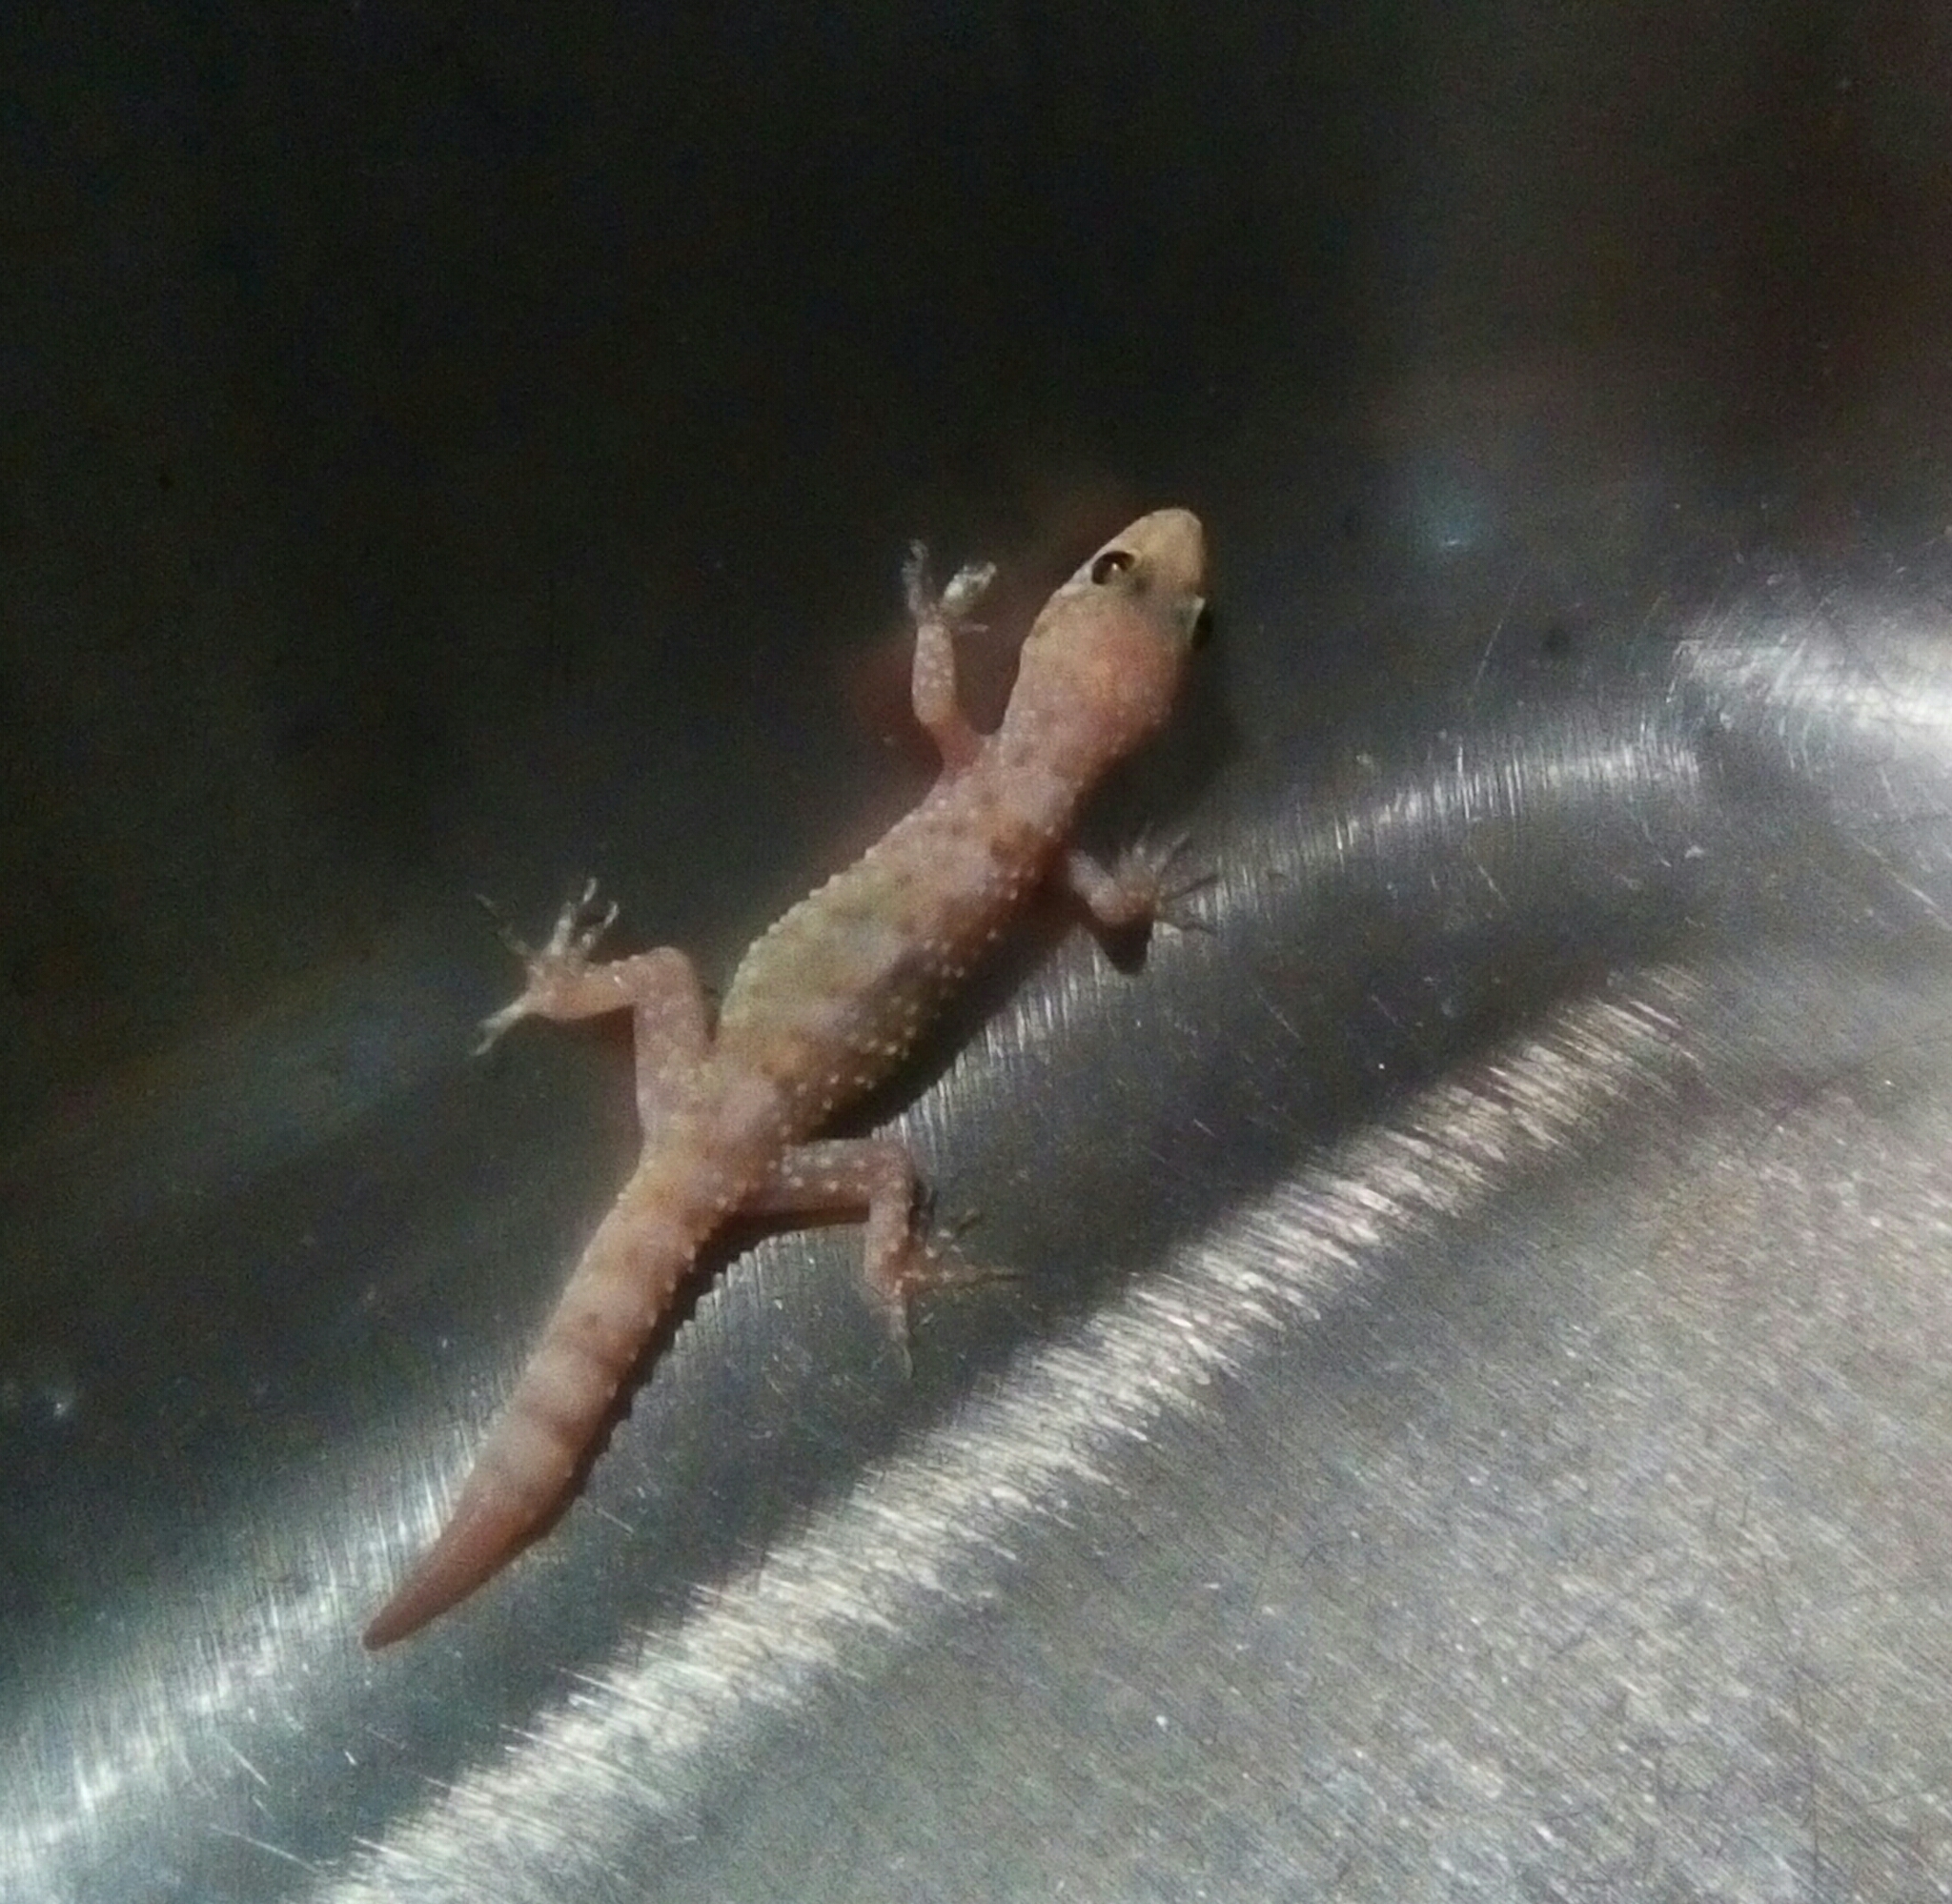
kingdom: Animalia
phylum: Chordata
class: Squamata
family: Gekkonidae
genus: Hemidactylus
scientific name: Hemidactylus turcicus
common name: Turkish gecko
